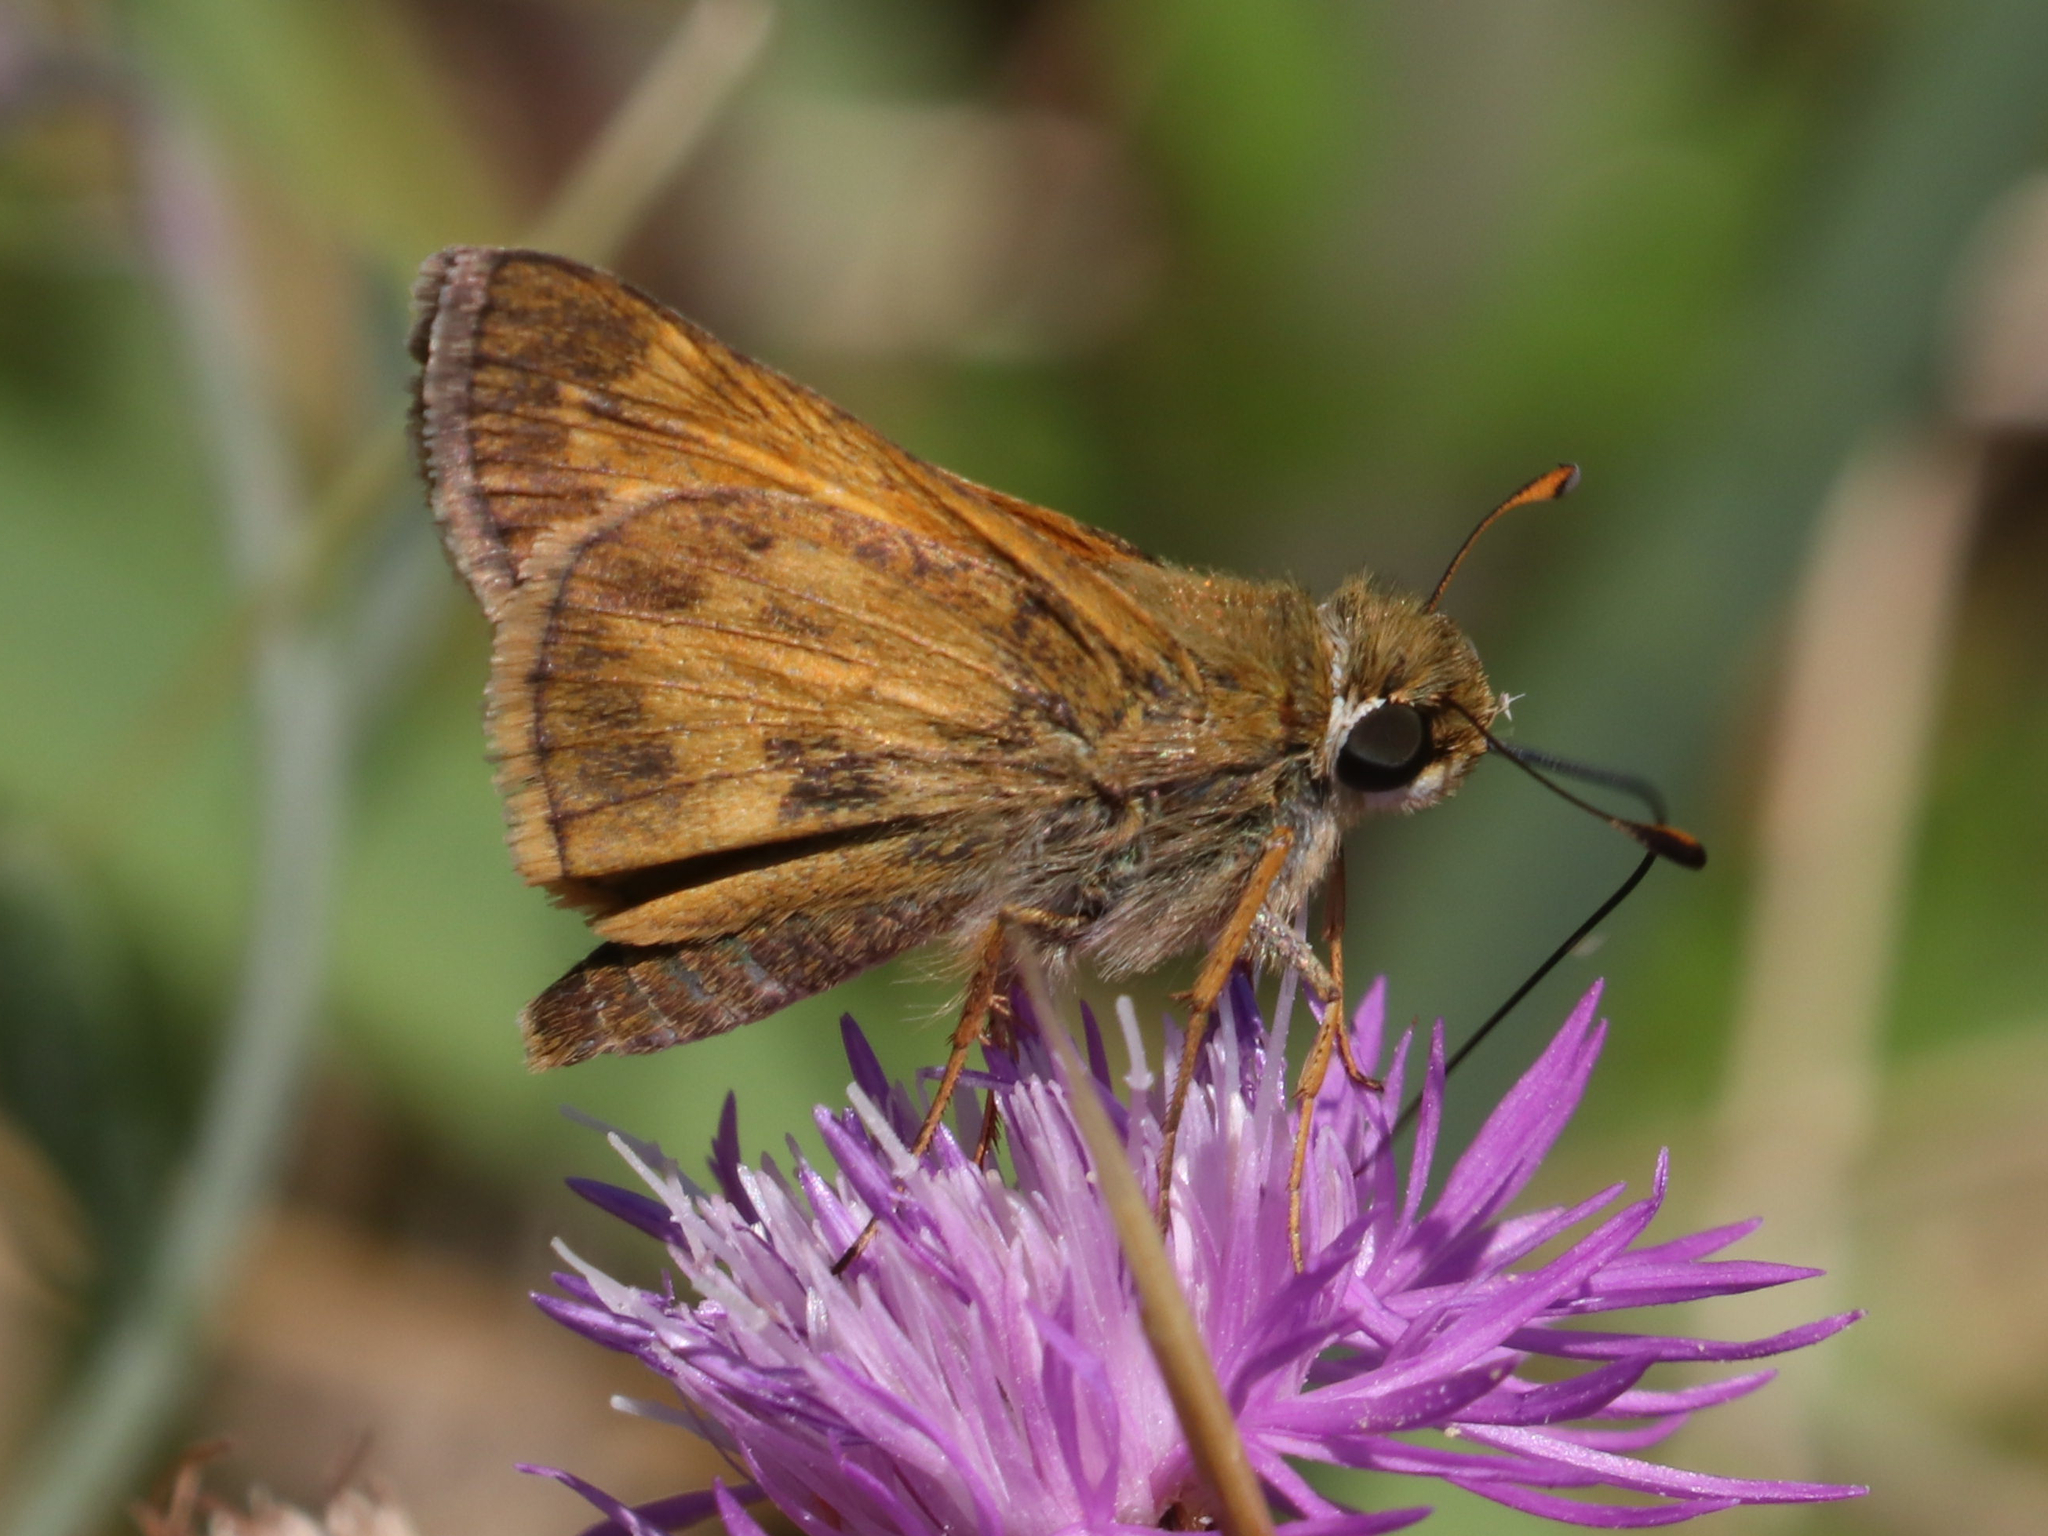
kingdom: Animalia
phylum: Arthropoda
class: Insecta
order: Lepidoptera
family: Hesperiidae
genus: Atalopedes
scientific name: Atalopedes
